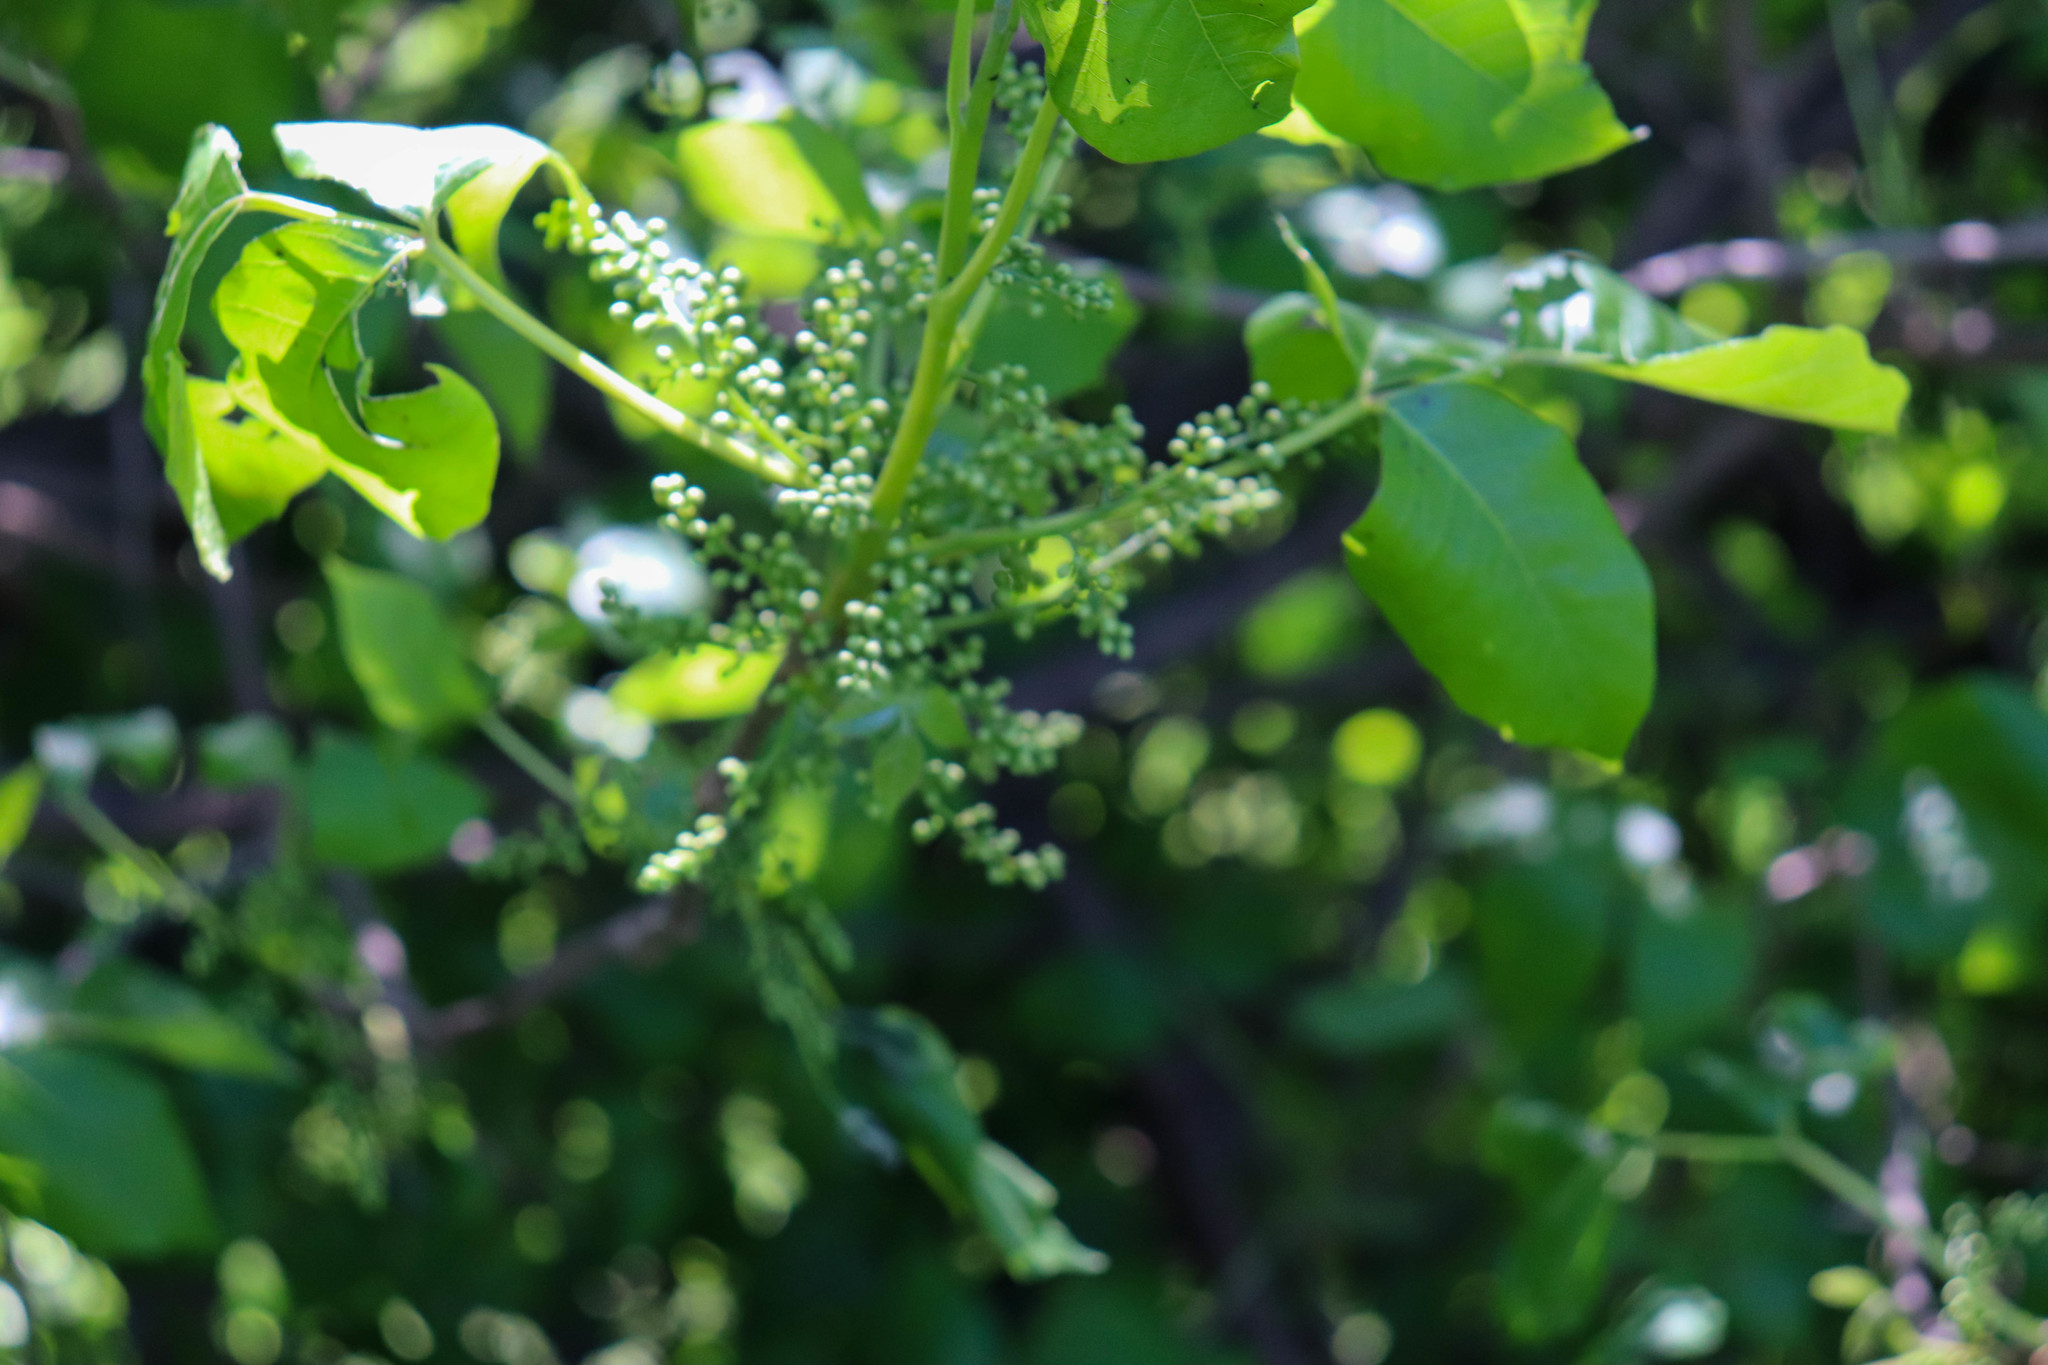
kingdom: Plantae
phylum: Tracheophyta
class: Magnoliopsida
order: Sapindales
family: Anacardiaceae
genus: Toxicodendron
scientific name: Toxicodendron radicans
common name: Poison ivy
